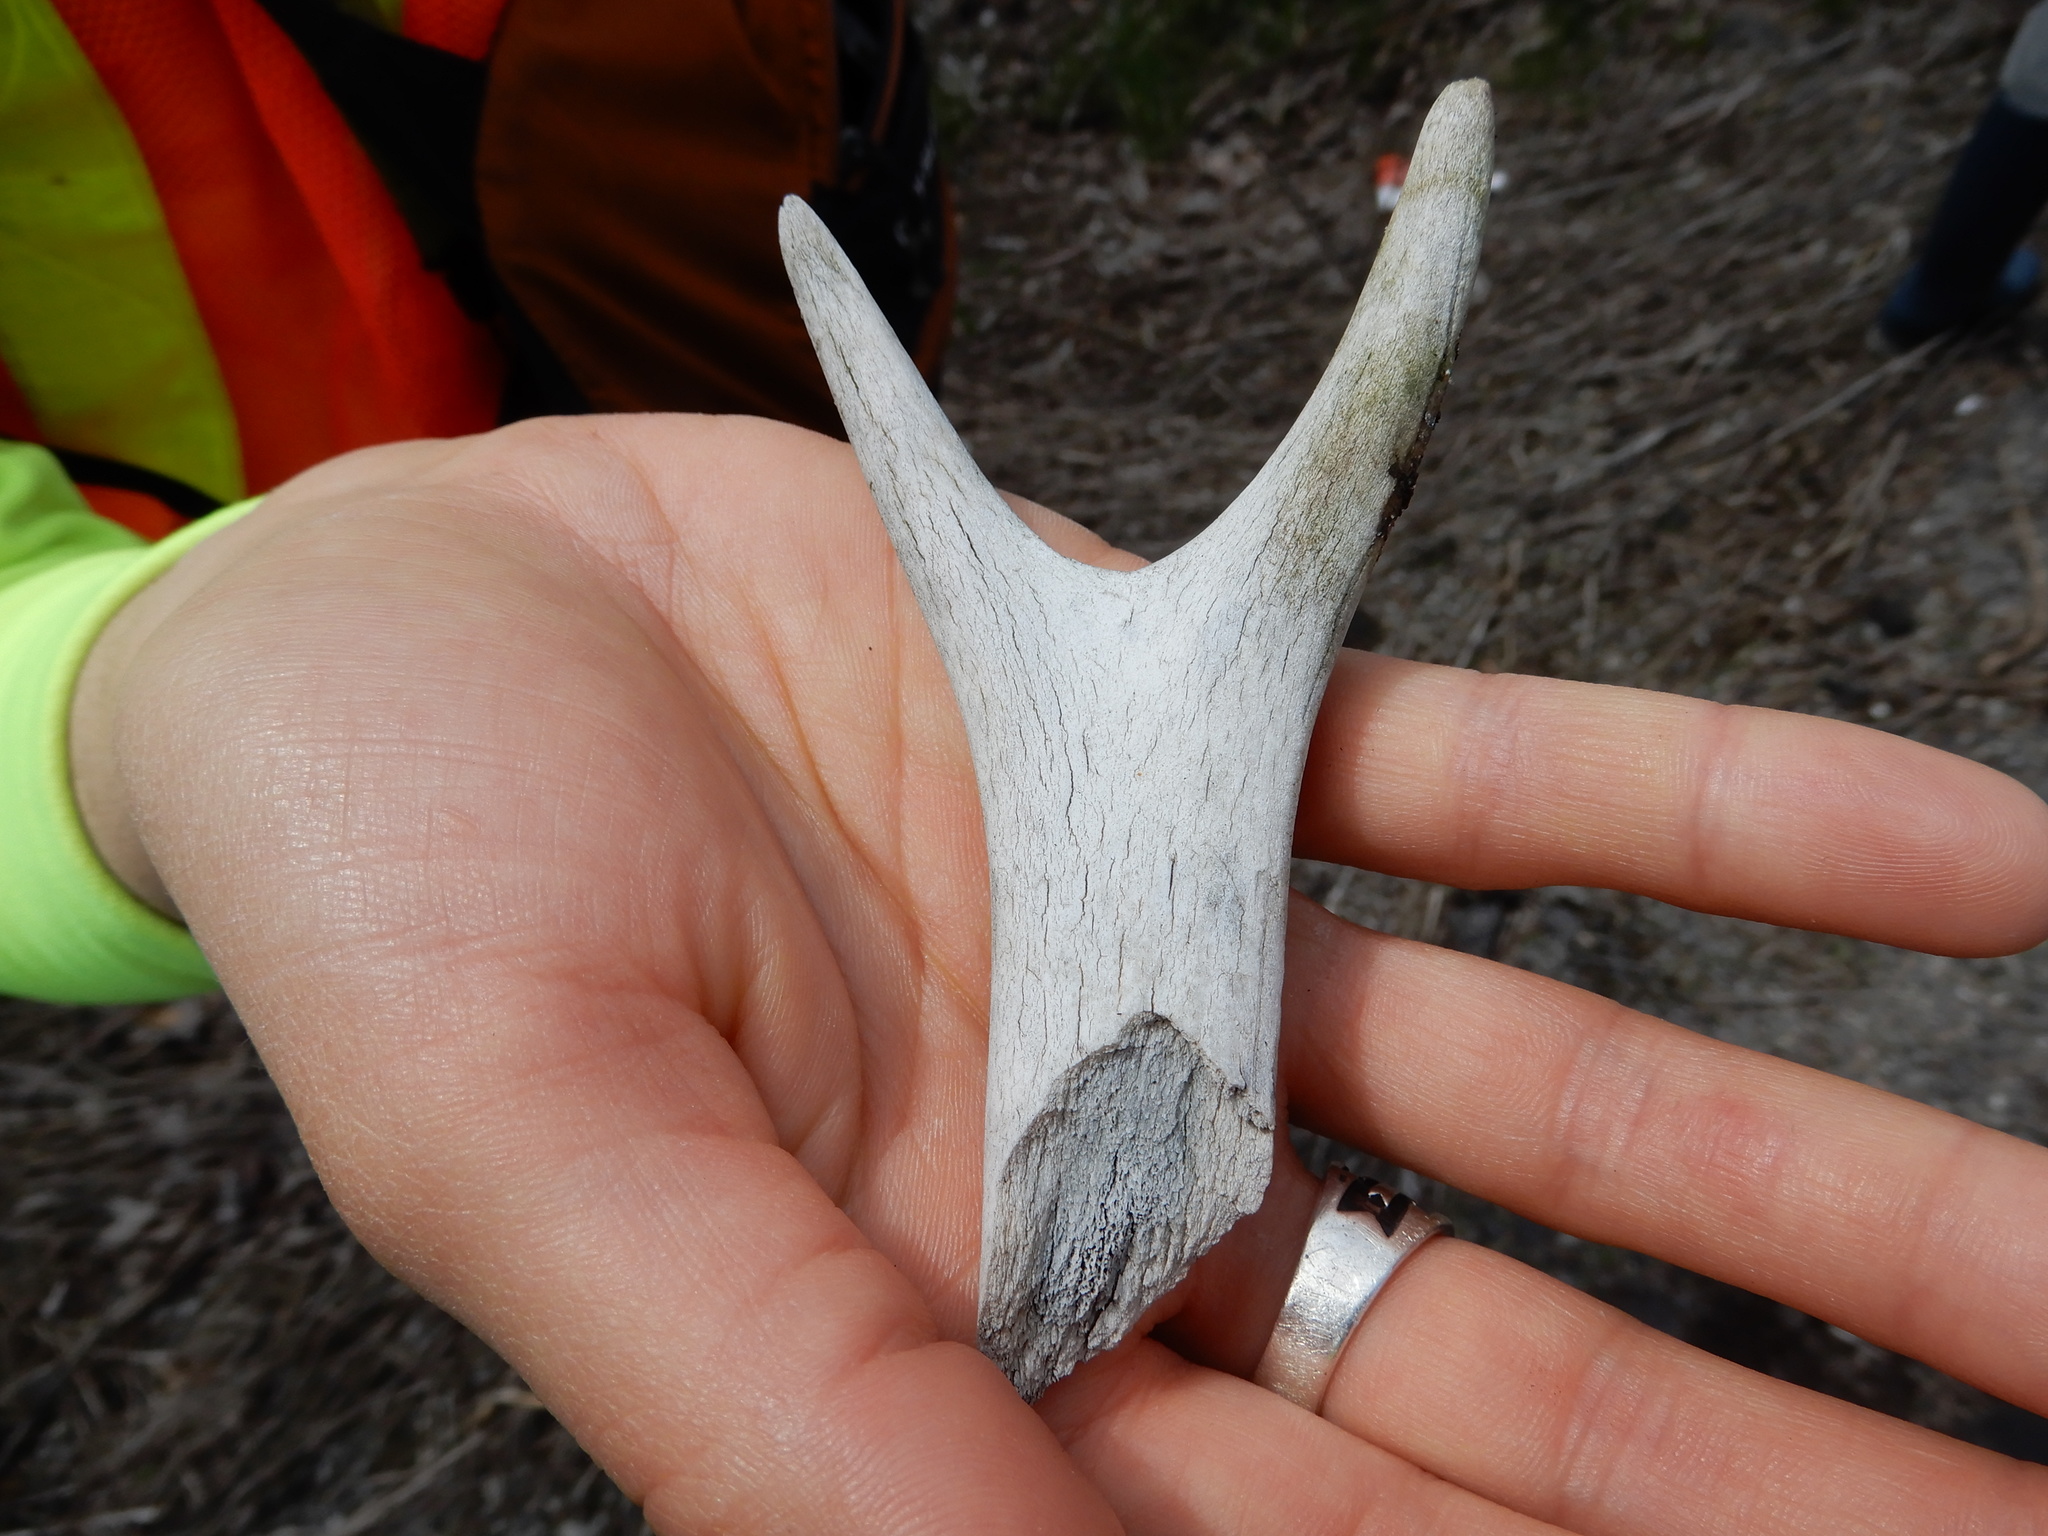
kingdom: Animalia
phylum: Chordata
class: Mammalia
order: Artiodactyla
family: Cervidae
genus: Odocoileus
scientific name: Odocoileus virginianus
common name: White-tailed deer
